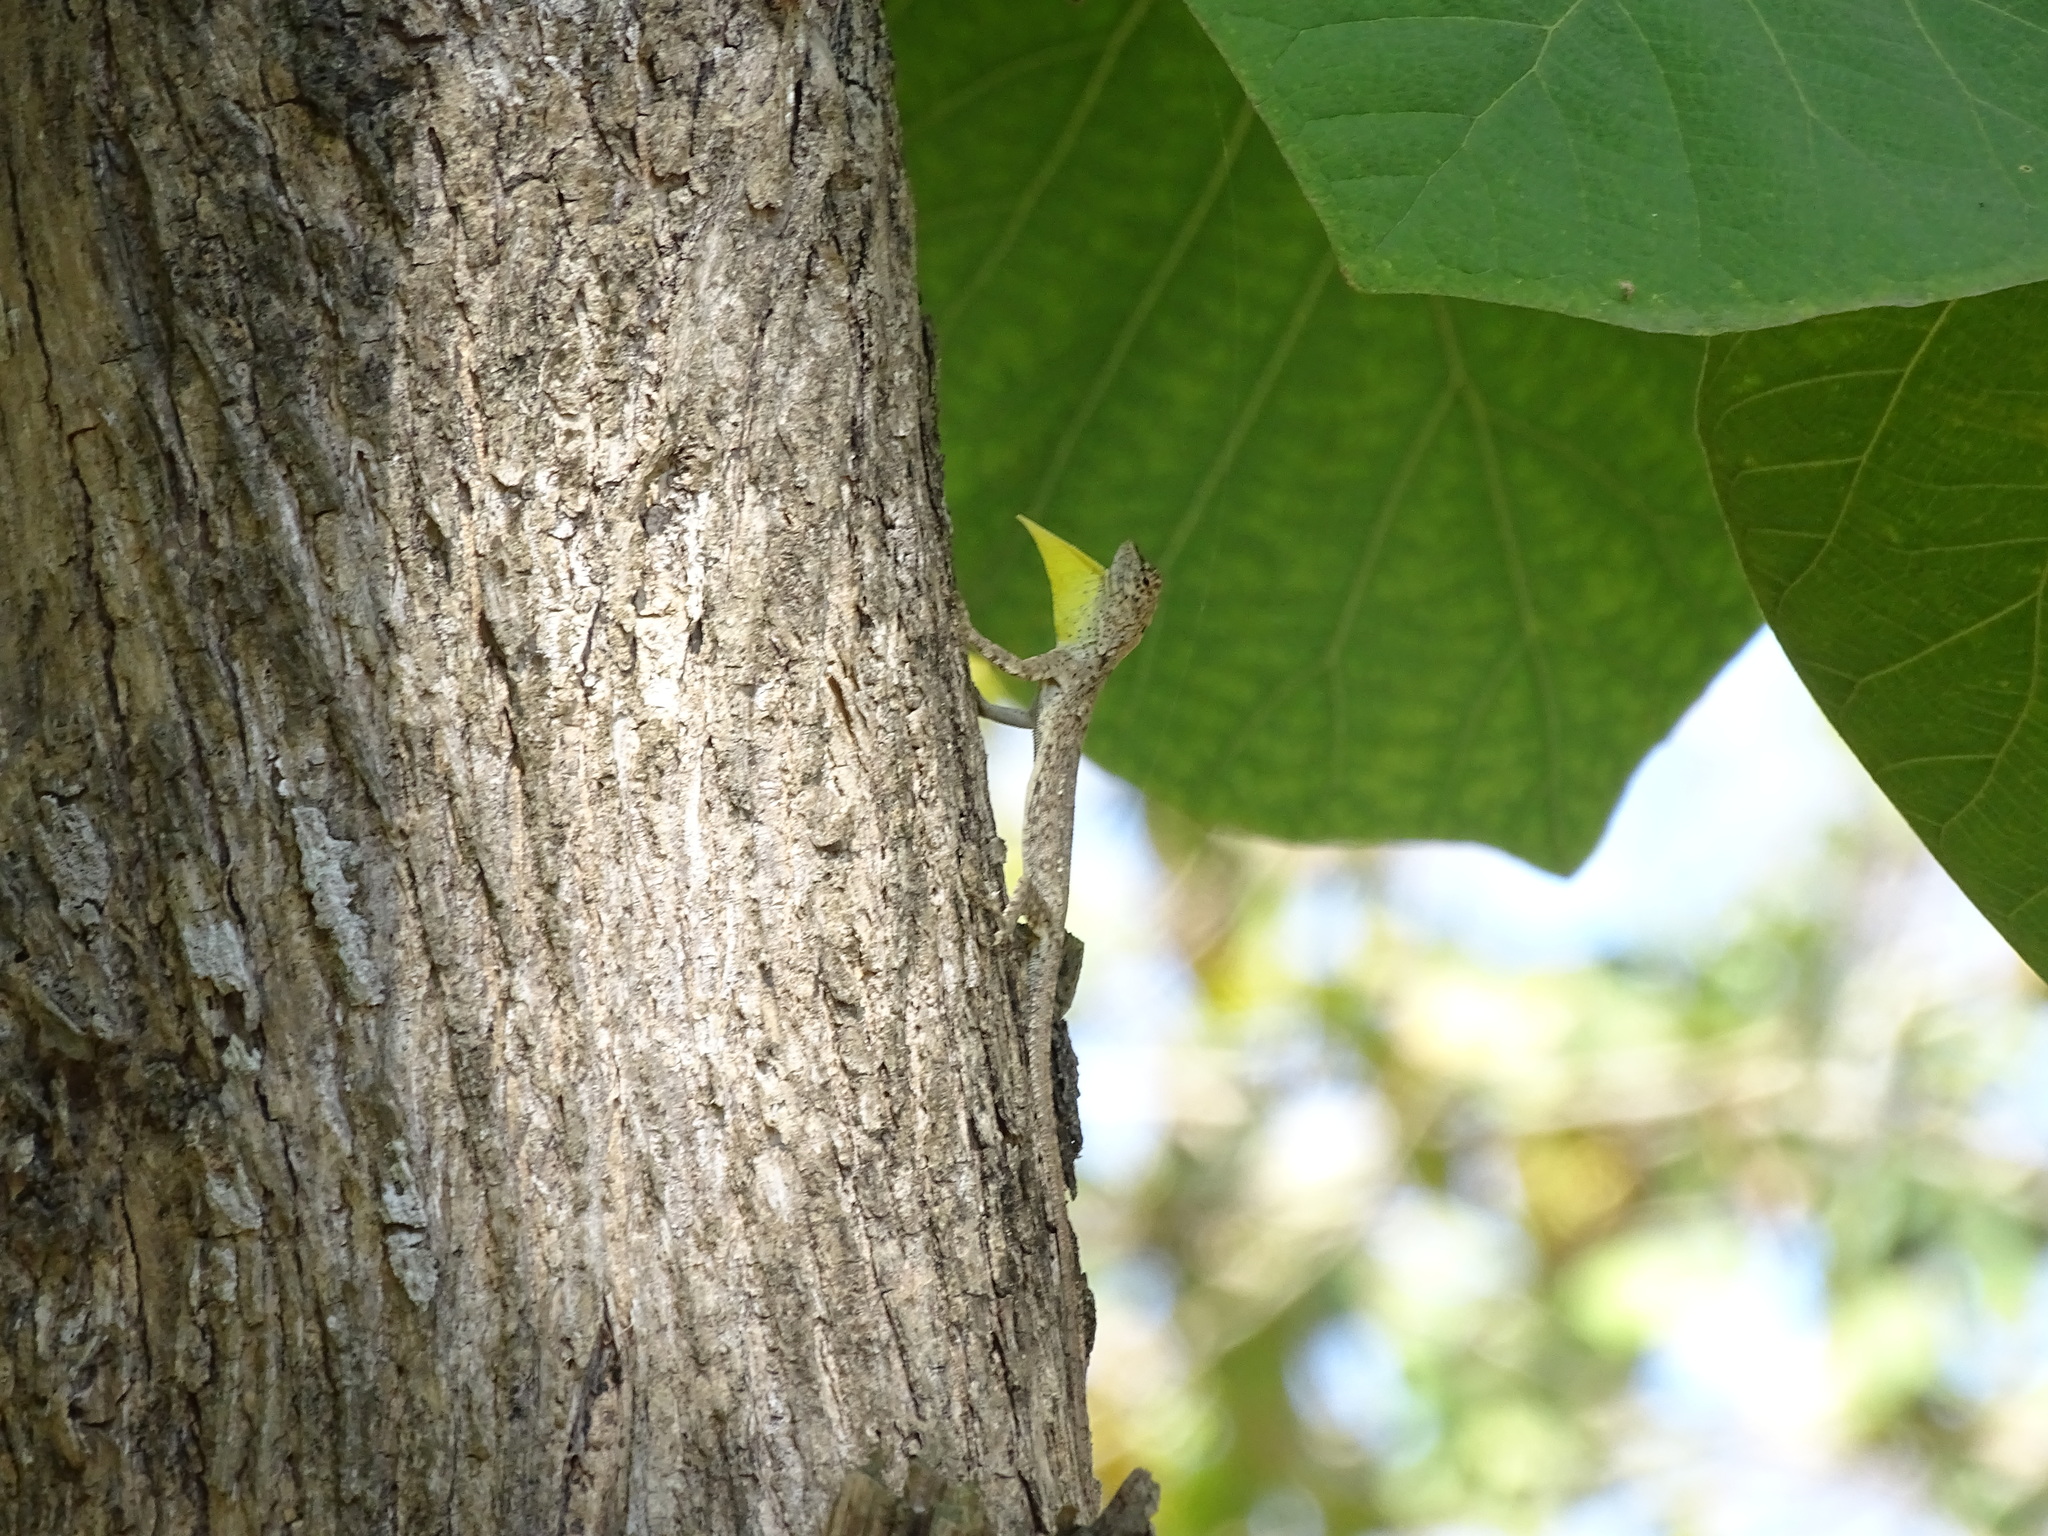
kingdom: Animalia
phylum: Chordata
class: Squamata
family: Agamidae
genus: Draco
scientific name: Draco volans
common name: Common flying dragon
